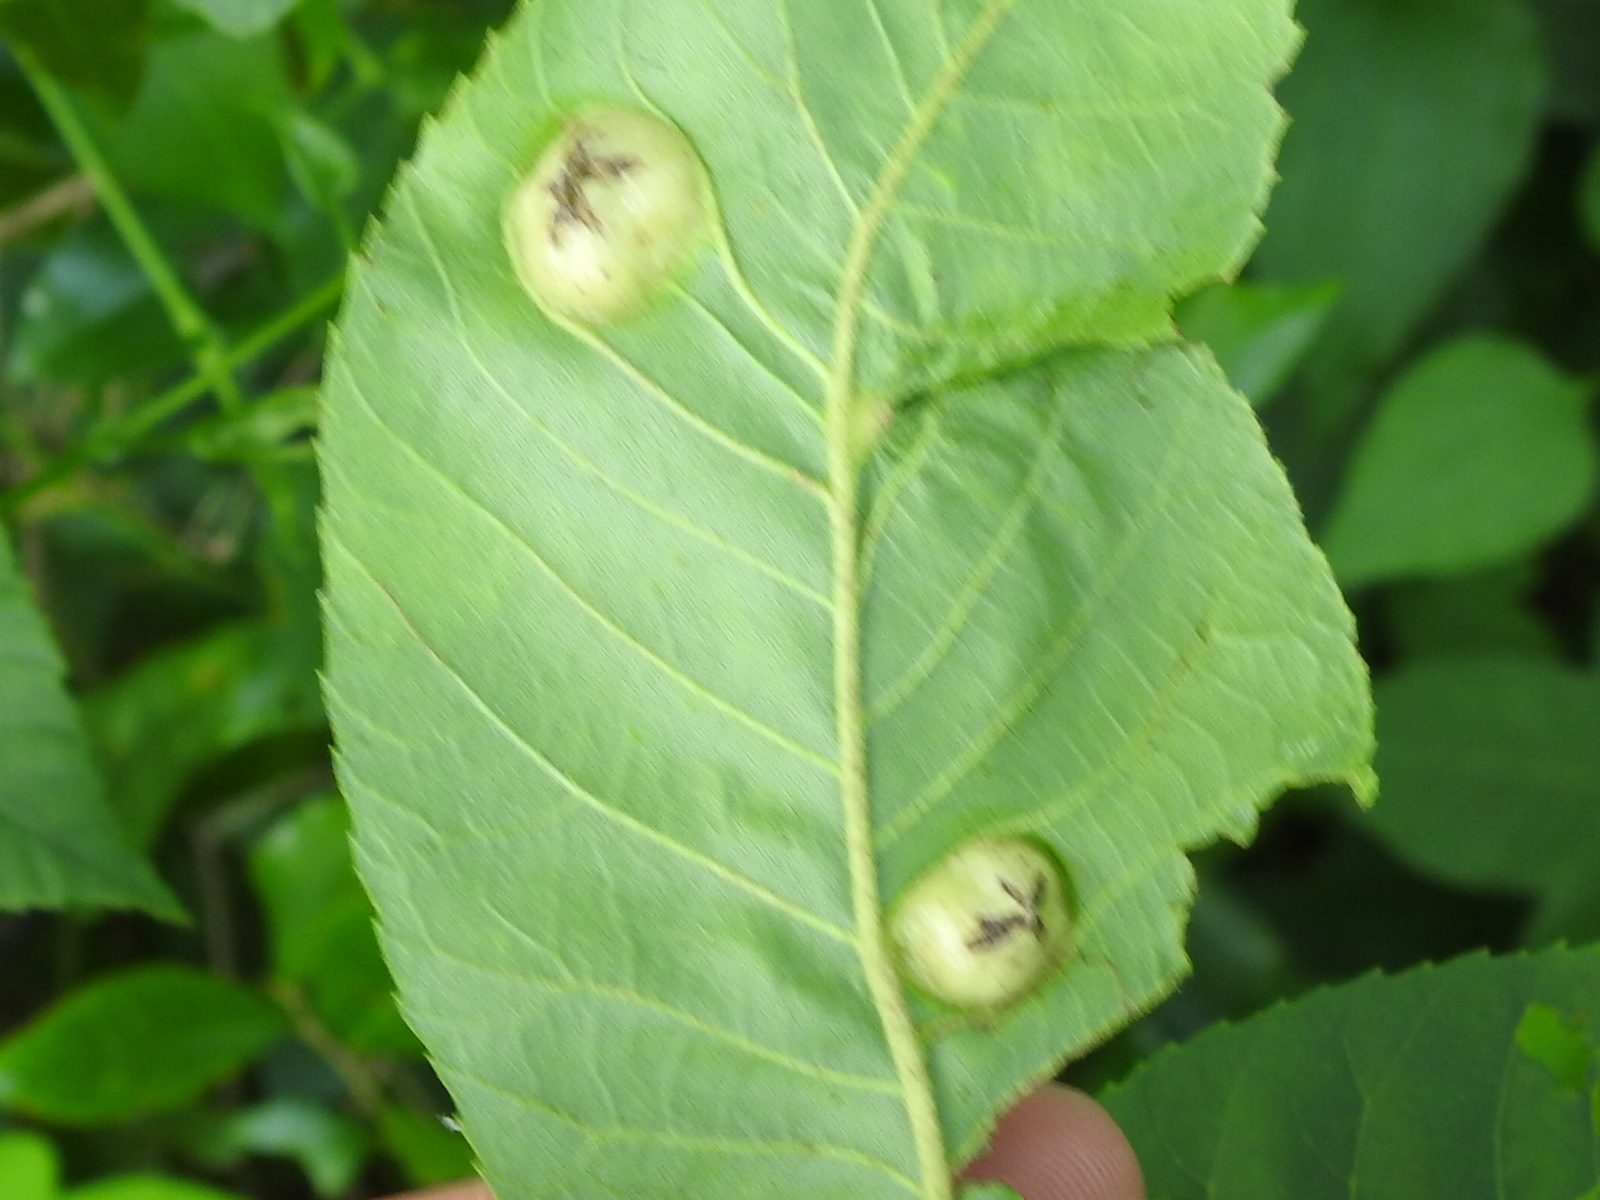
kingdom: Animalia
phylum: Arthropoda
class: Insecta
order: Hemiptera
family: Phylloxeridae
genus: Daktulosphaira
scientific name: Daktulosphaira notabilis
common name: Pecan leaf phylloxera
